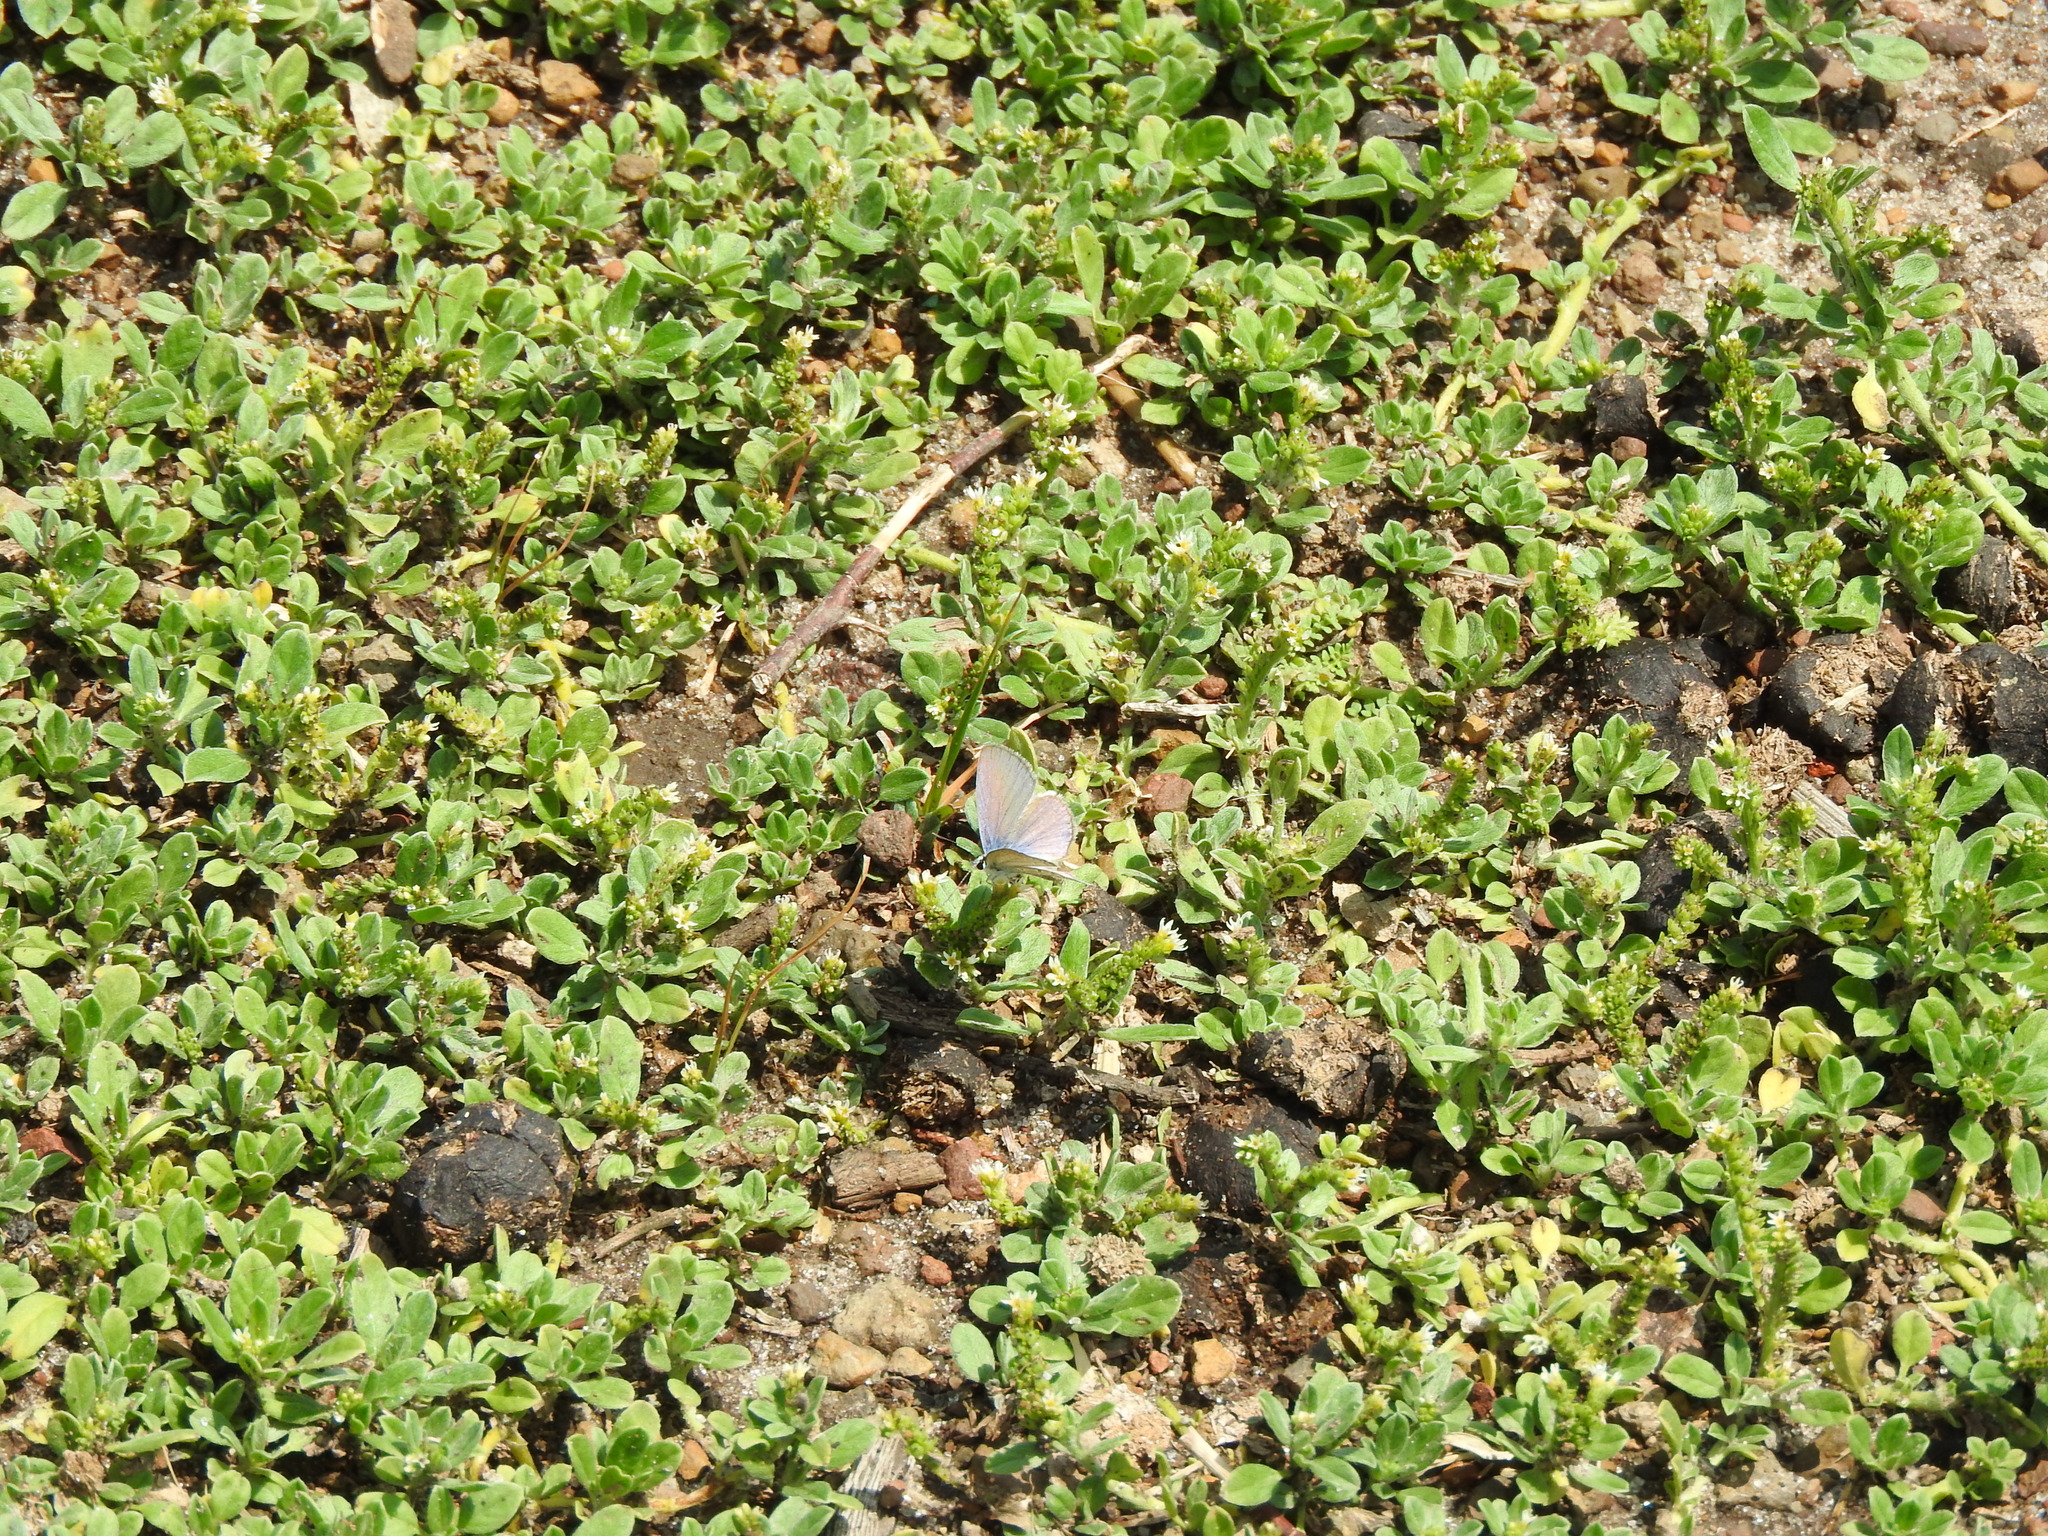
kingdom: Animalia
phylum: Arthropoda
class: Insecta
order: Lepidoptera
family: Lycaenidae
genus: Hemiargus
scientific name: Hemiargus ceraunus
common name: Ceraunus blue
